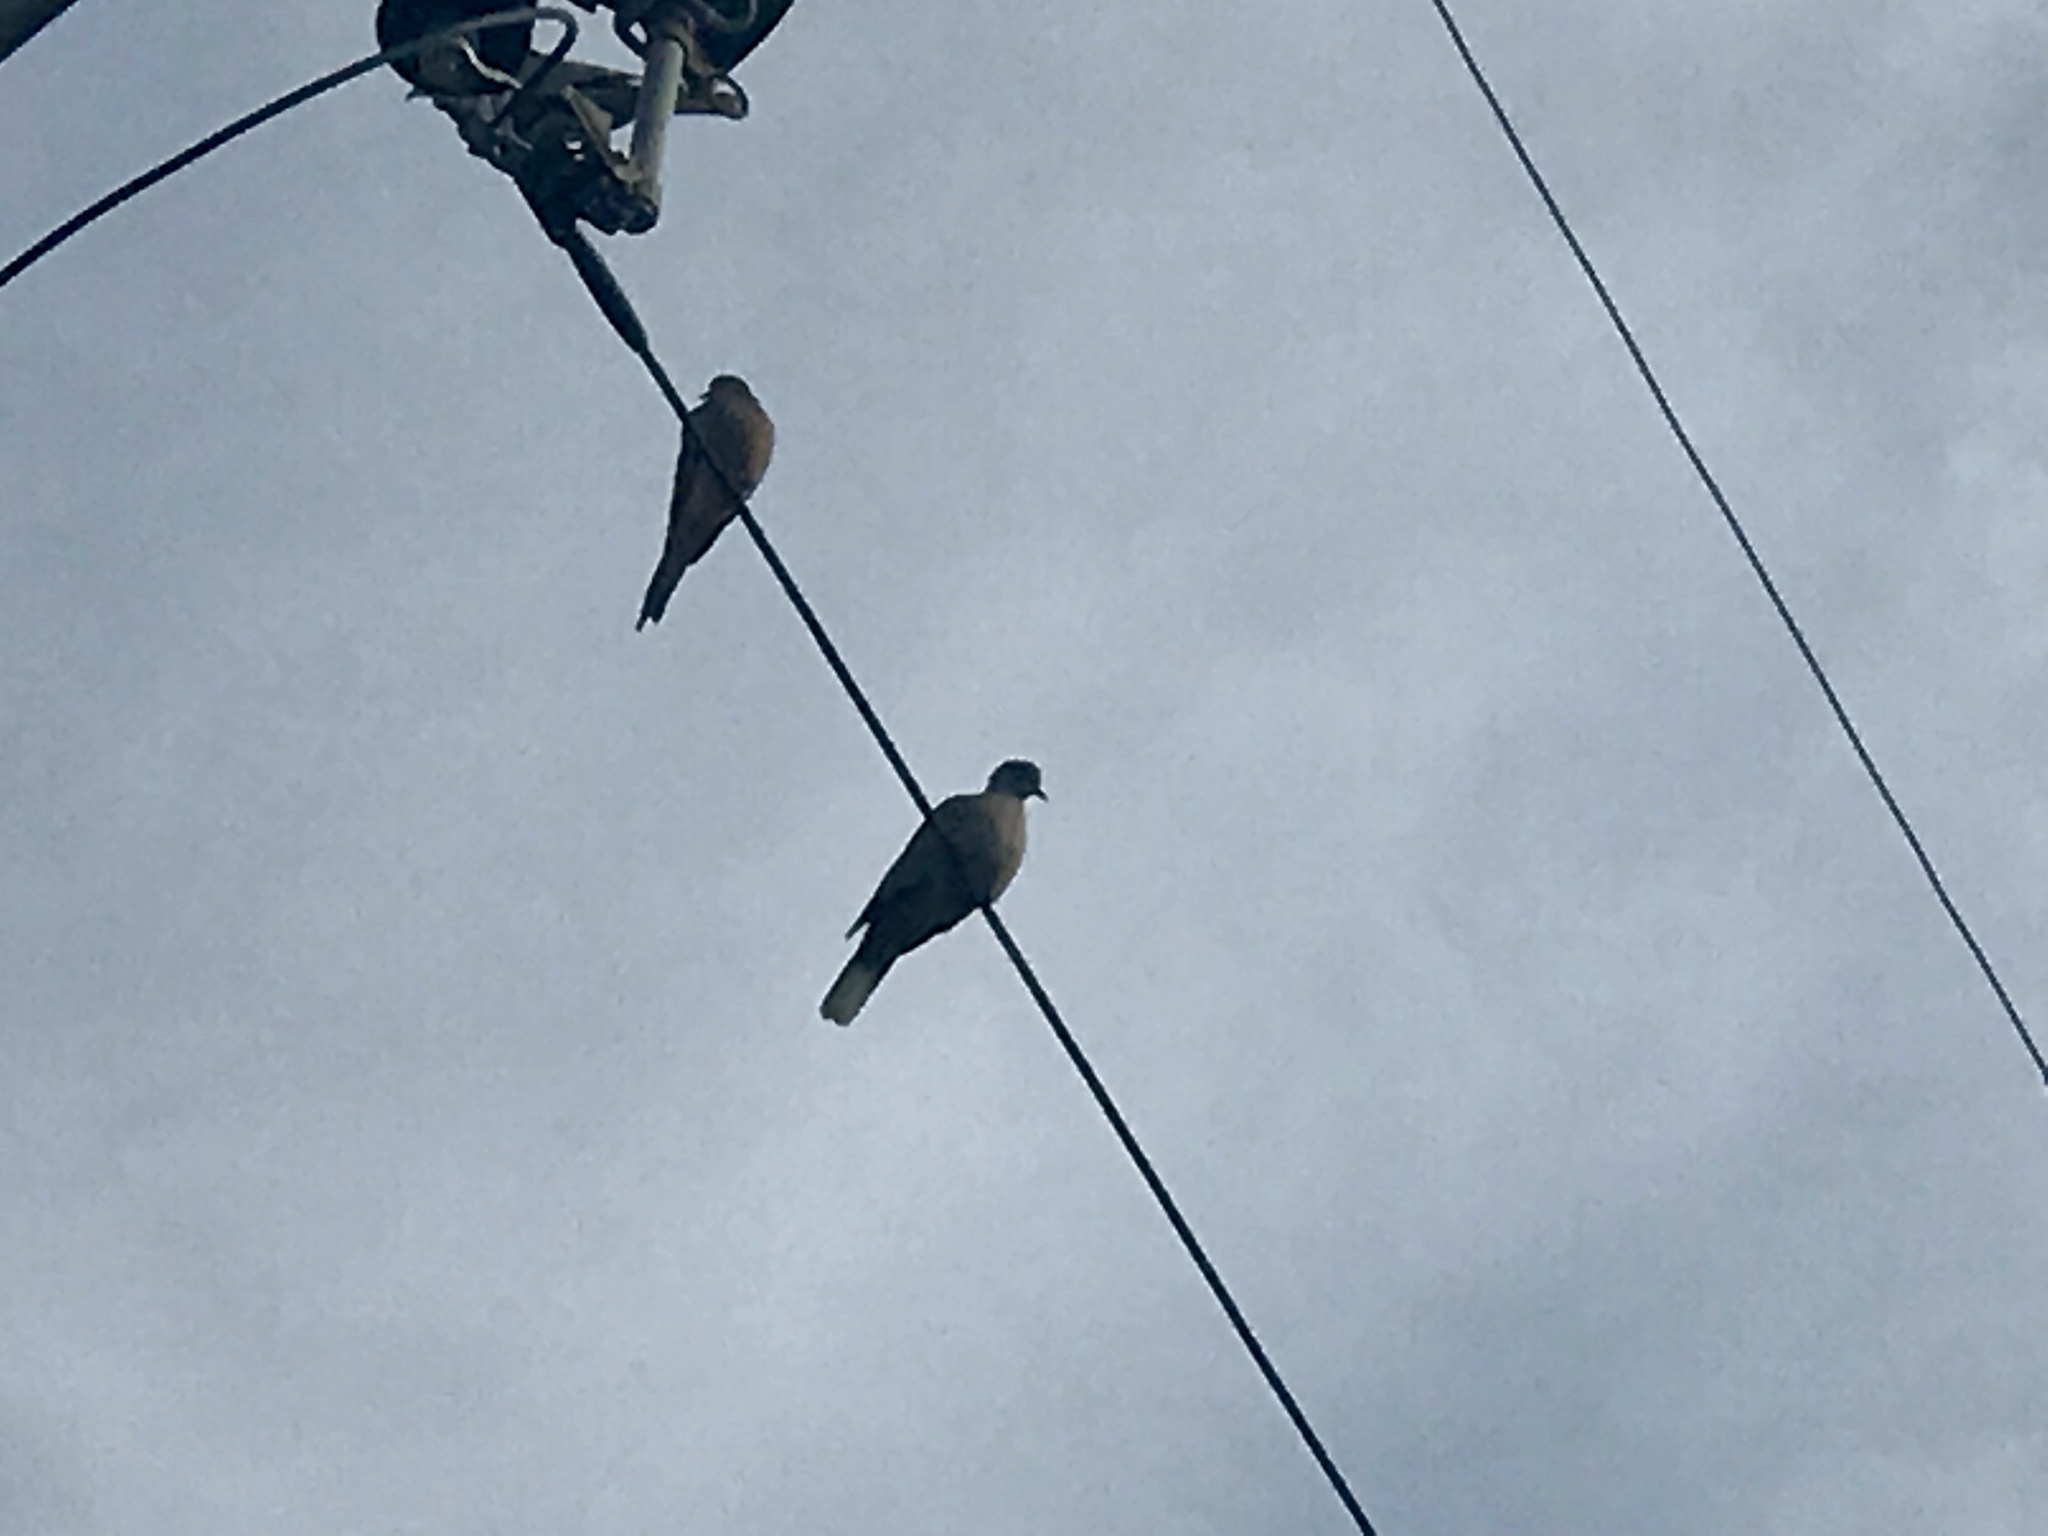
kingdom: Animalia
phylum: Chordata
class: Aves
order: Columbiformes
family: Columbidae
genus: Zenaida
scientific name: Zenaida macroura
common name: Mourning dove
